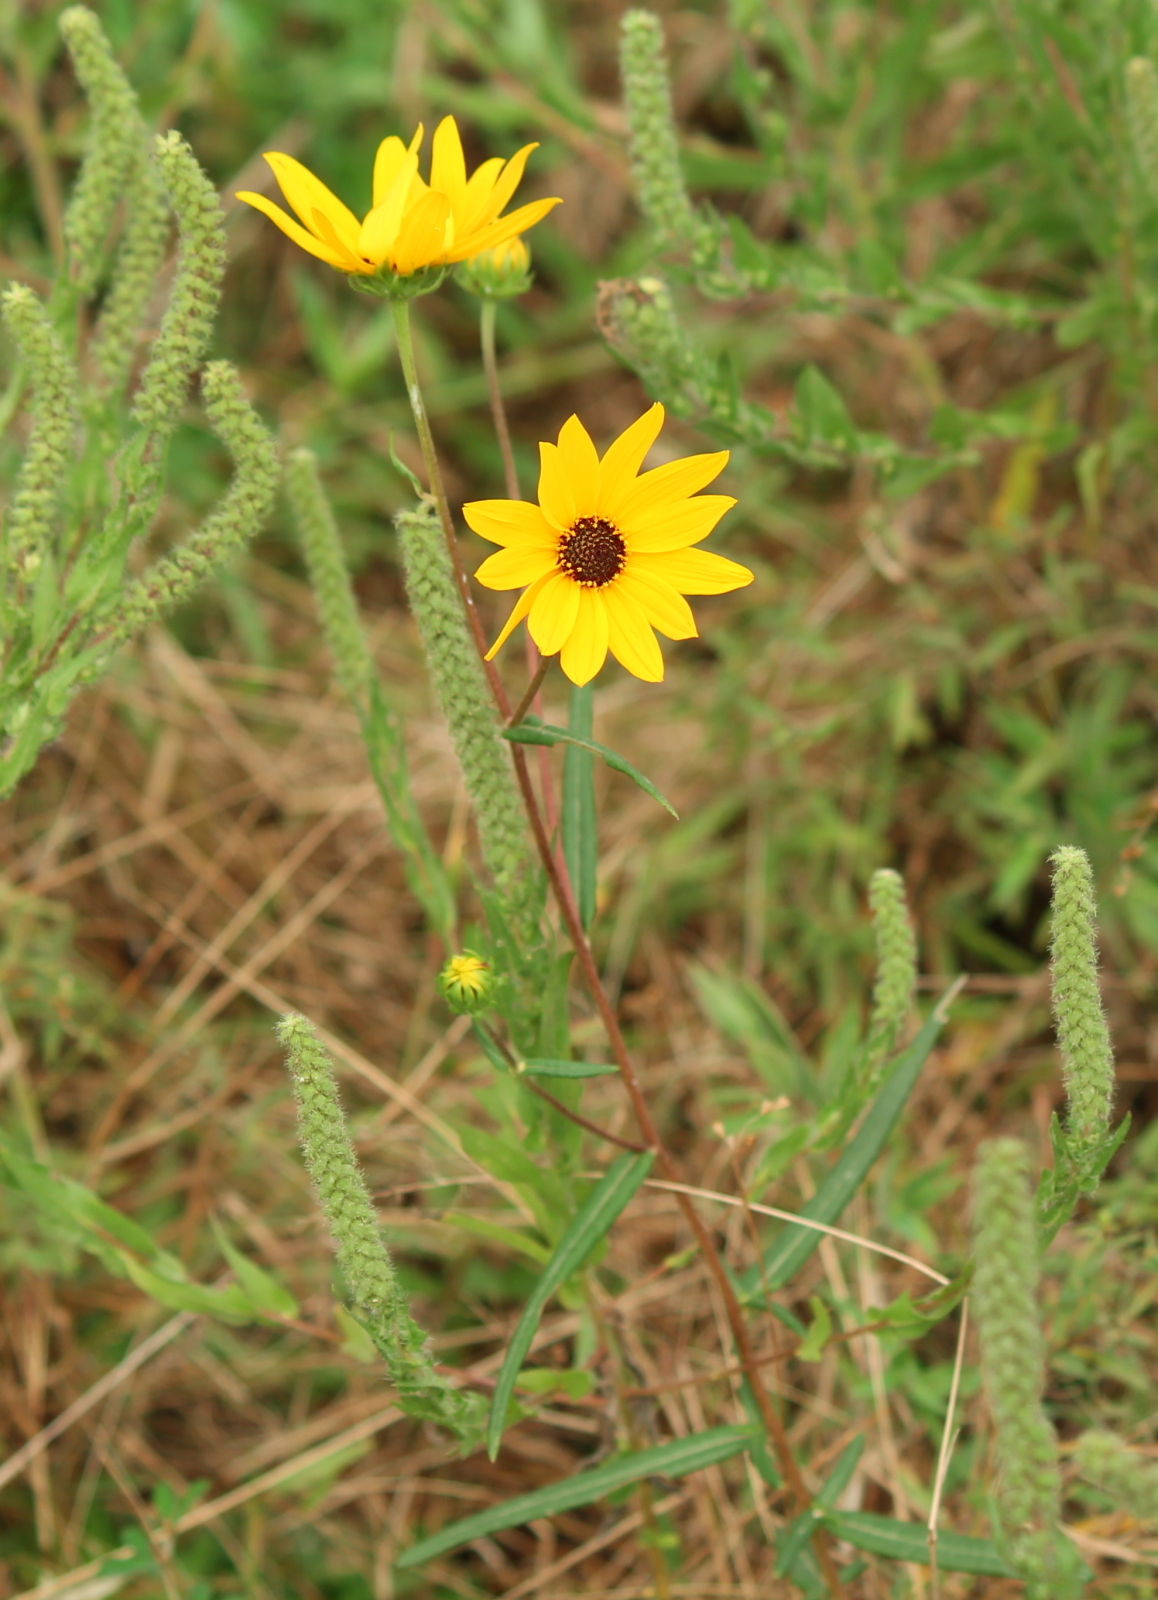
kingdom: Plantae
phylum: Tracheophyta
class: Magnoliopsida
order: Asterales
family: Asteraceae
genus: Helianthus
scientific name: Helianthus angustifolius
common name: Swamp sunflower
